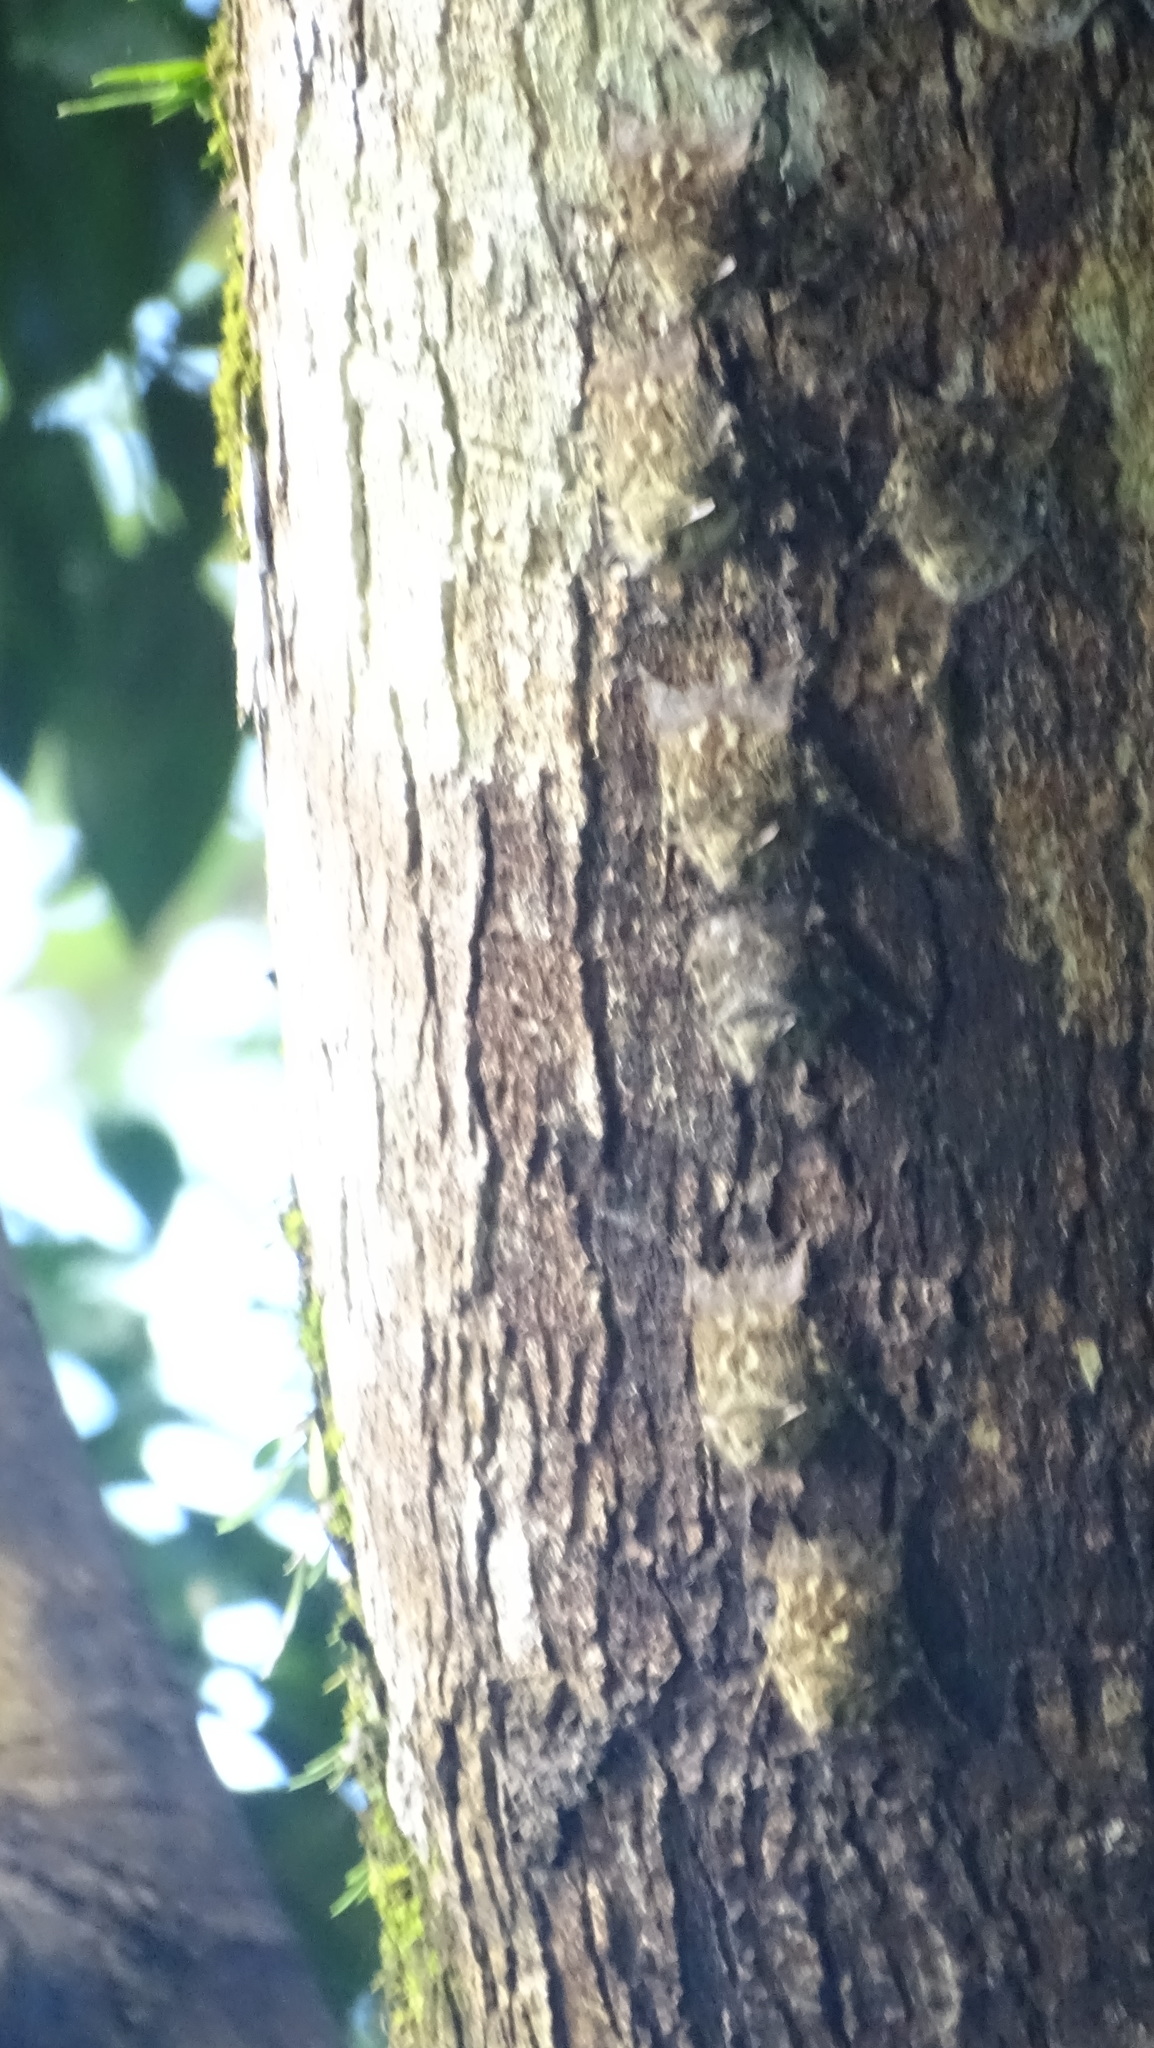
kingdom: Animalia
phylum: Chordata
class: Mammalia
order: Chiroptera
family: Emballonuridae
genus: Rhynchonycteris
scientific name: Rhynchonycteris naso
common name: Proboscis bat
